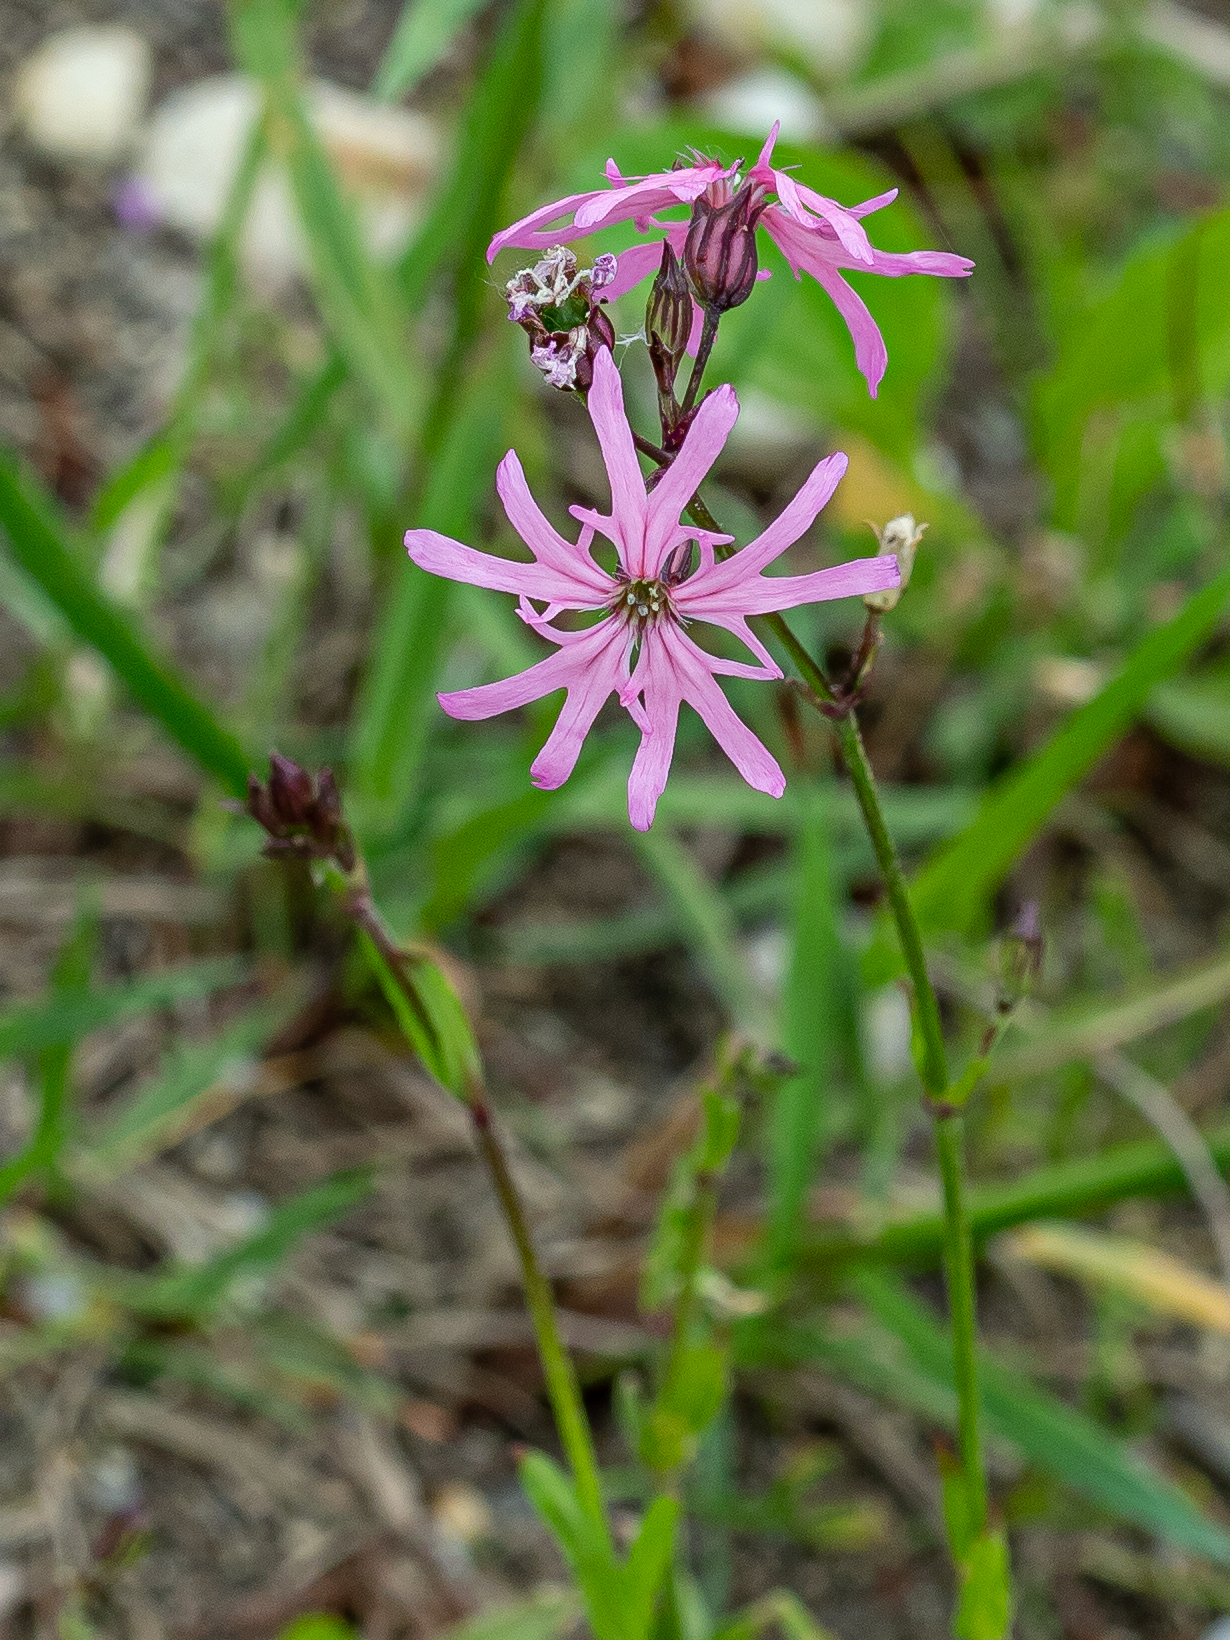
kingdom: Plantae
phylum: Tracheophyta
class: Magnoliopsida
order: Caryophyllales
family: Caryophyllaceae
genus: Silene
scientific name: Silene flos-cuculi
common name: Ragged-robin
